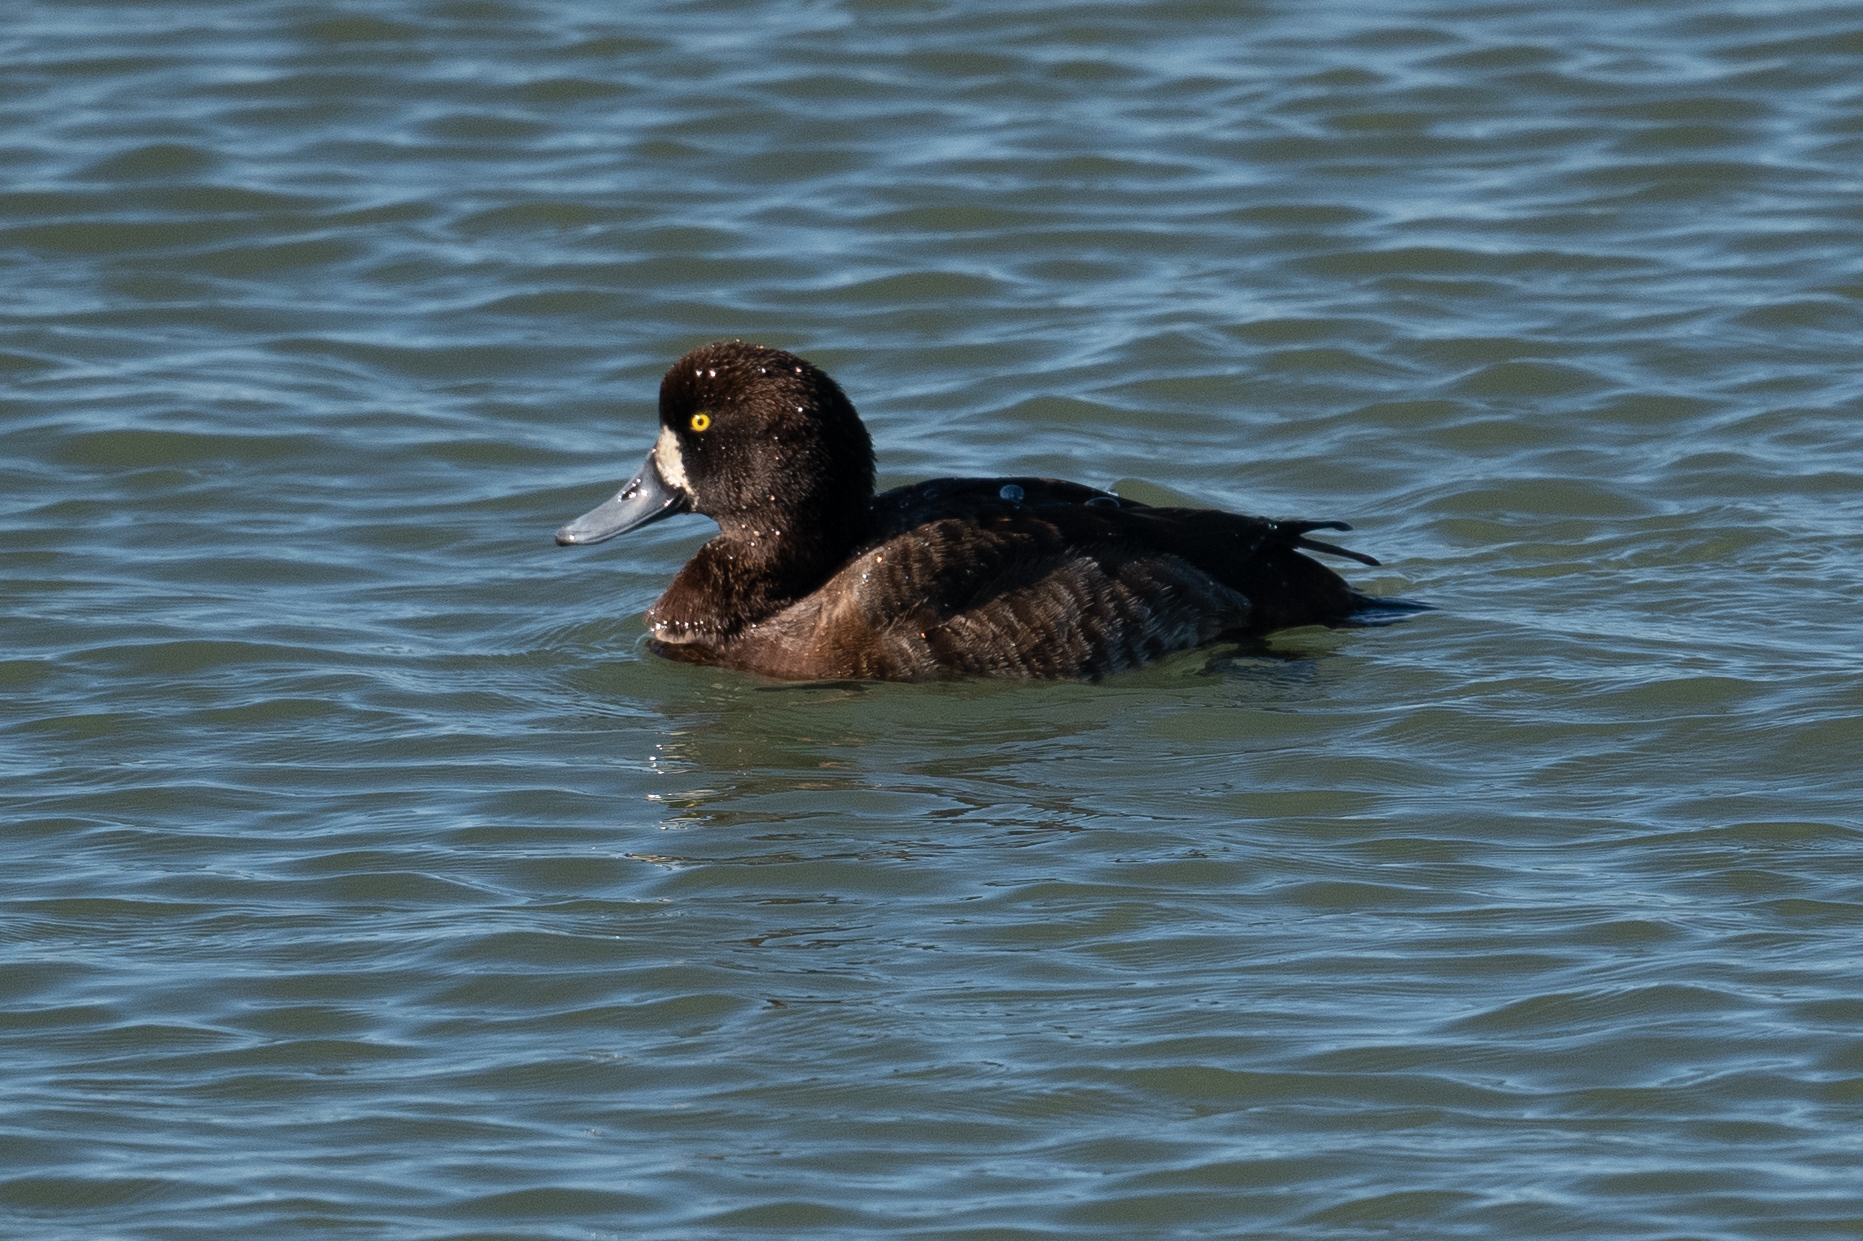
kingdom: Animalia
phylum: Chordata
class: Aves
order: Anseriformes
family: Anatidae
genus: Aythya
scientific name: Aythya marila
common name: Greater scaup
